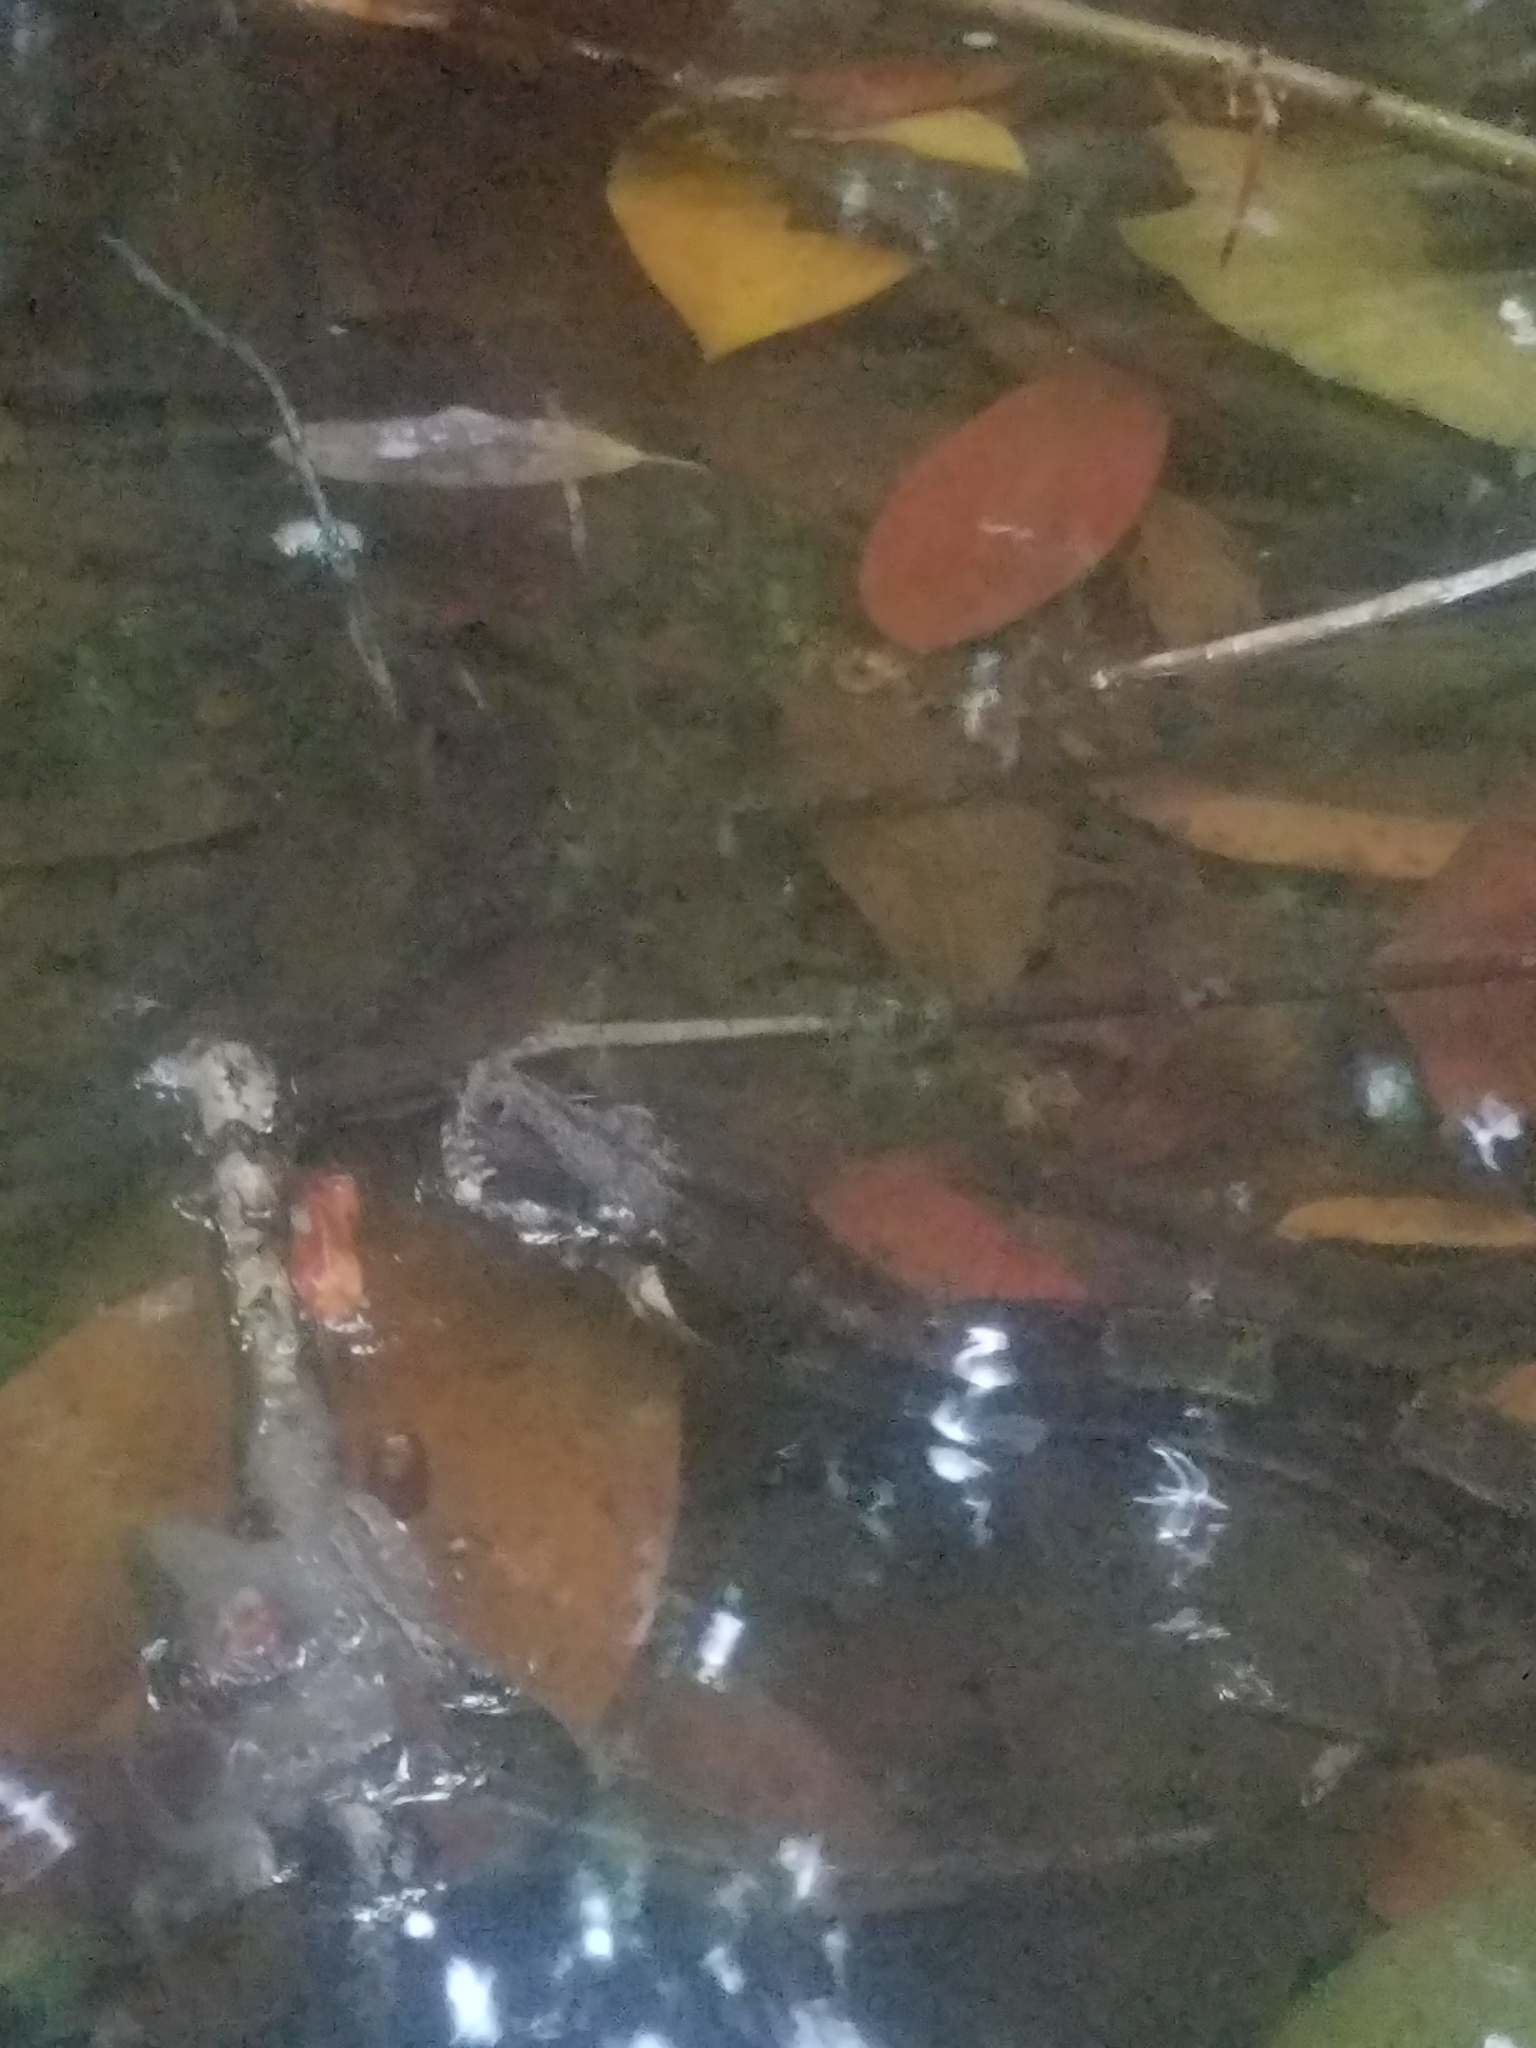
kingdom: Animalia
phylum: Chordata
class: Squamata
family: Boidae
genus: Boa
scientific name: Boa imperator
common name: Central american boa
